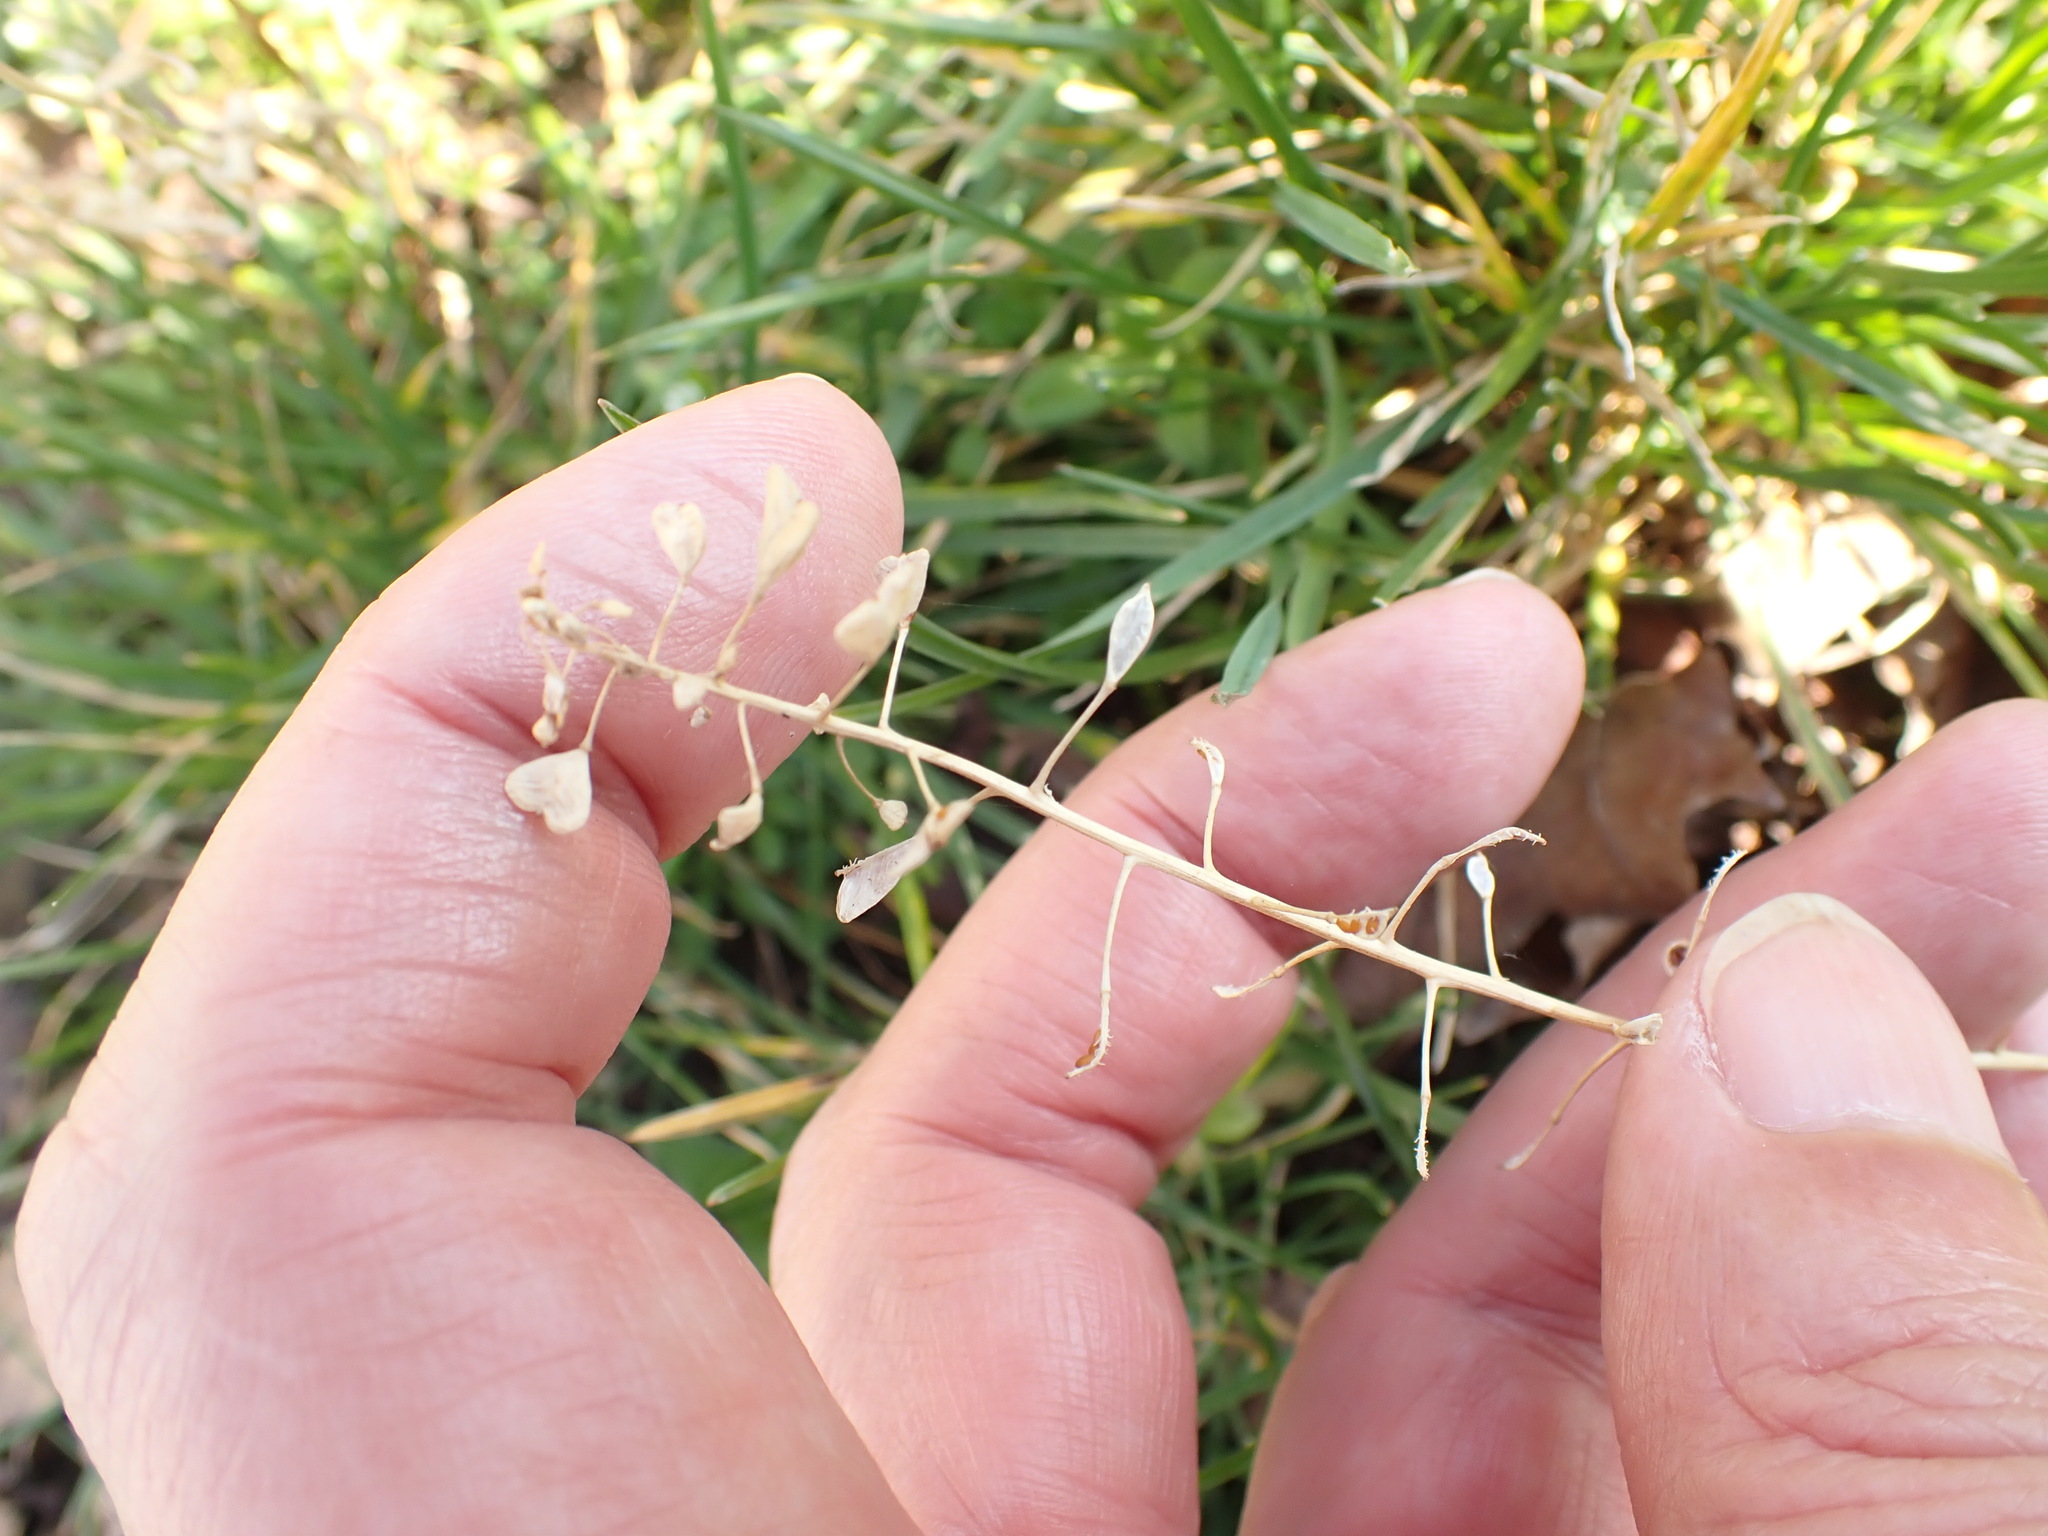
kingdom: Plantae
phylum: Tracheophyta
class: Magnoliopsida
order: Brassicales
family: Brassicaceae
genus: Capsella
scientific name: Capsella bursa-pastoris
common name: Shepherd's purse
